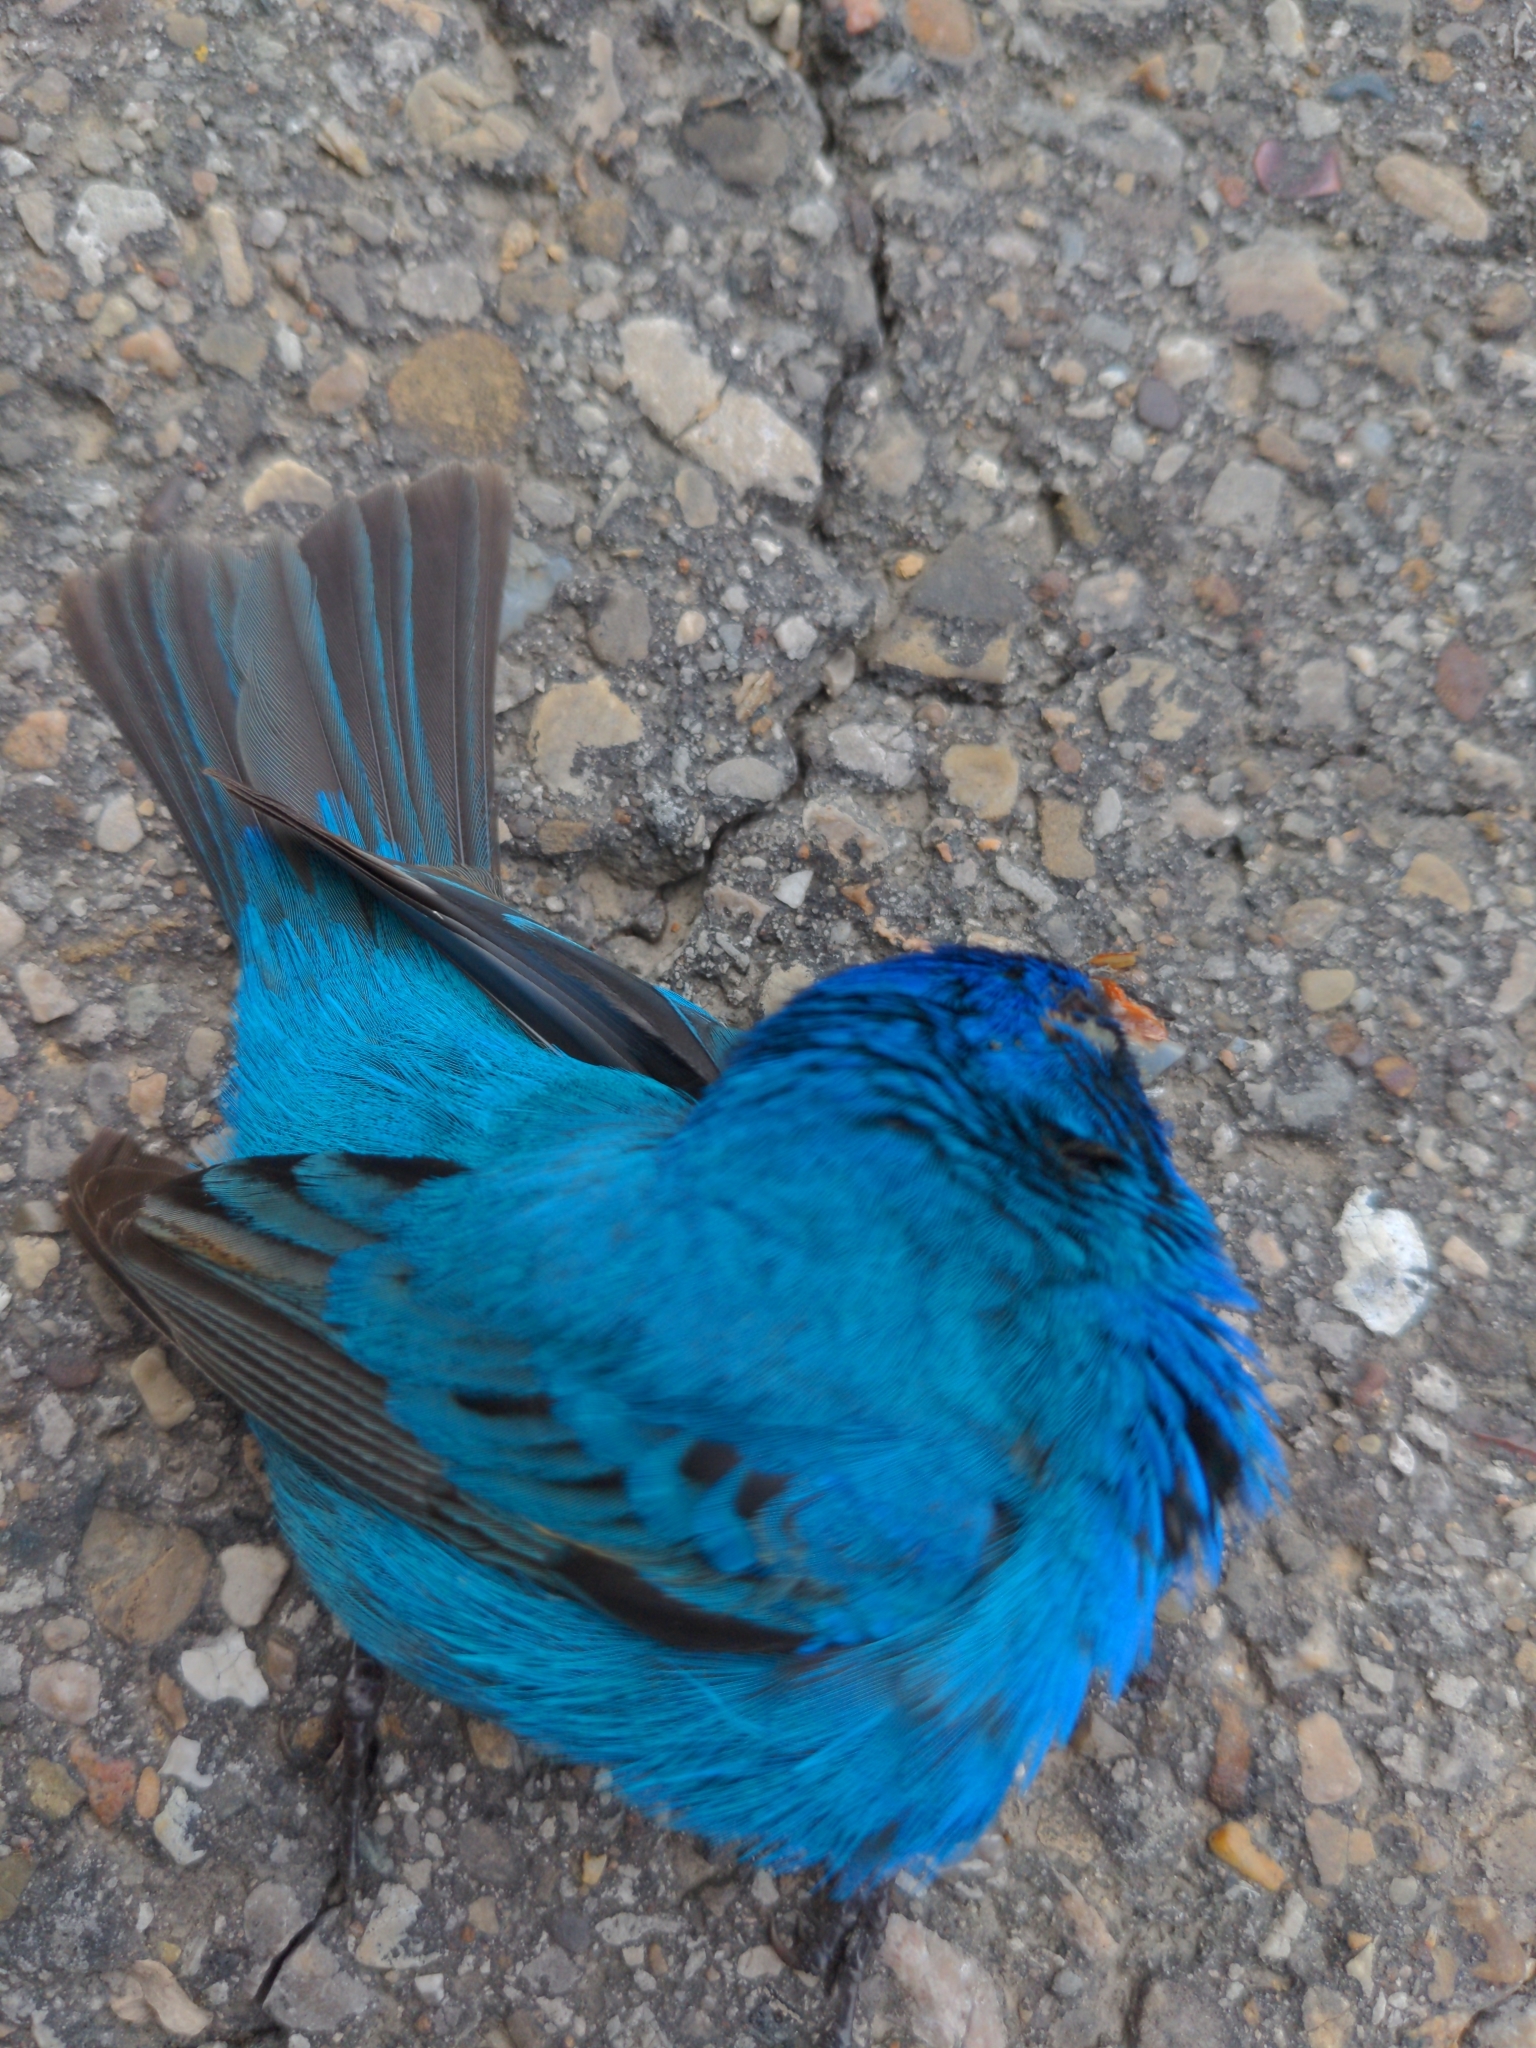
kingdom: Animalia
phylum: Chordata
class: Aves
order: Passeriformes
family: Cardinalidae
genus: Passerina
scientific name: Passerina cyanea
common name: Indigo bunting
